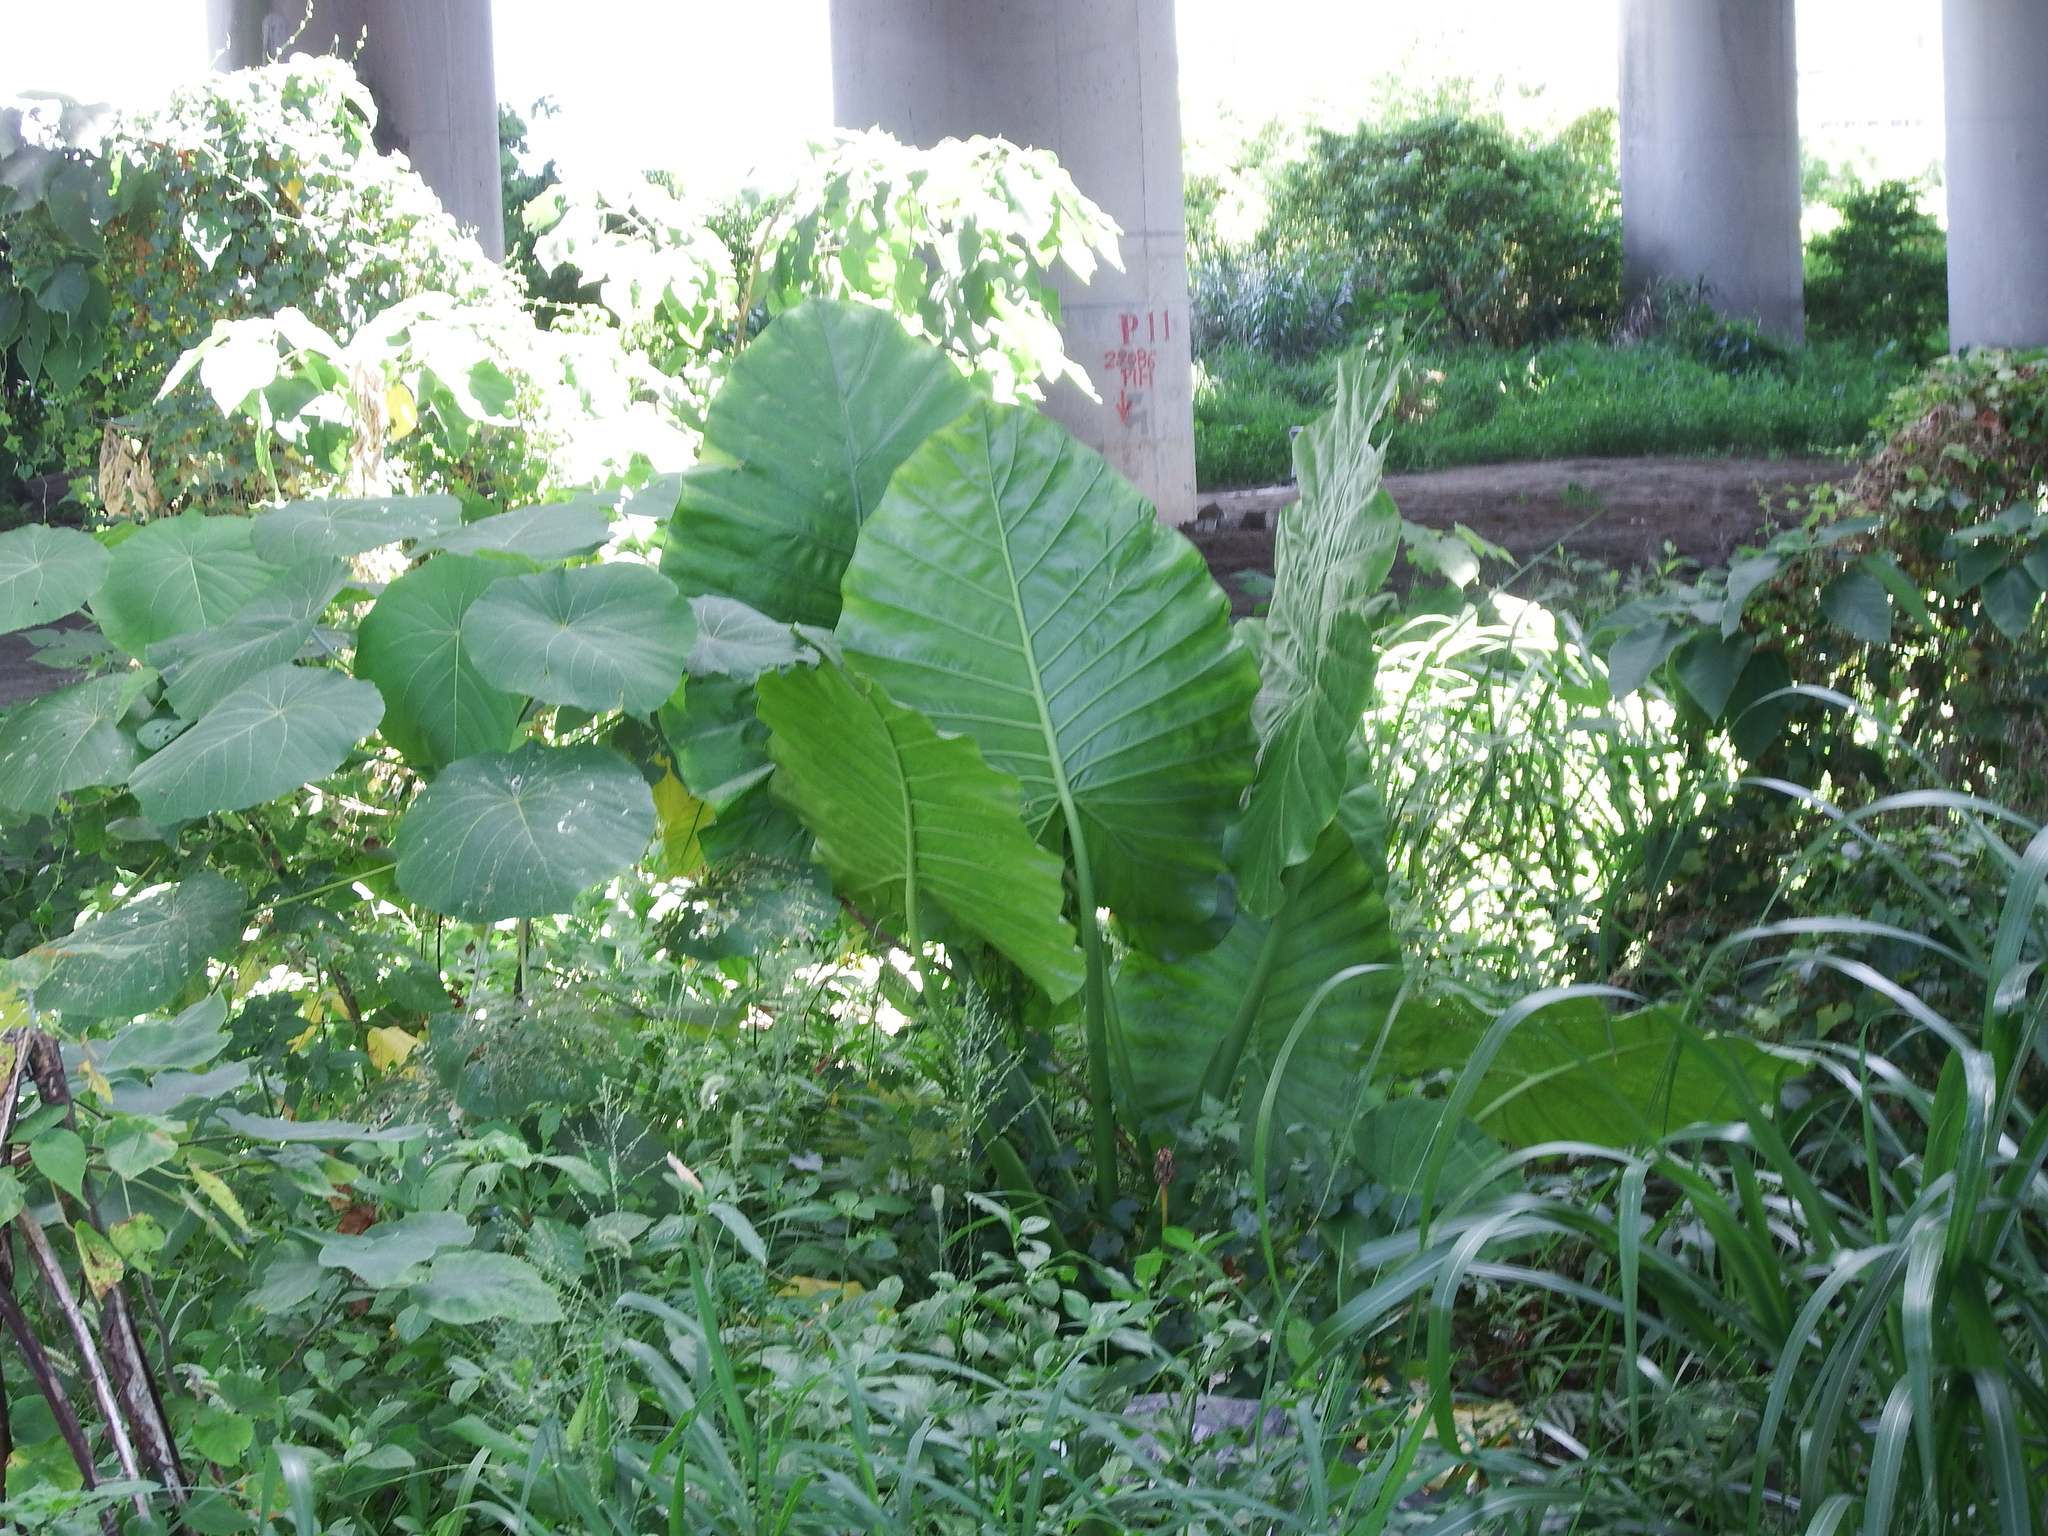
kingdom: Plantae
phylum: Tracheophyta
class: Liliopsida
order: Alismatales
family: Araceae
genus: Alocasia
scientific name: Alocasia odora
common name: Asian taro
